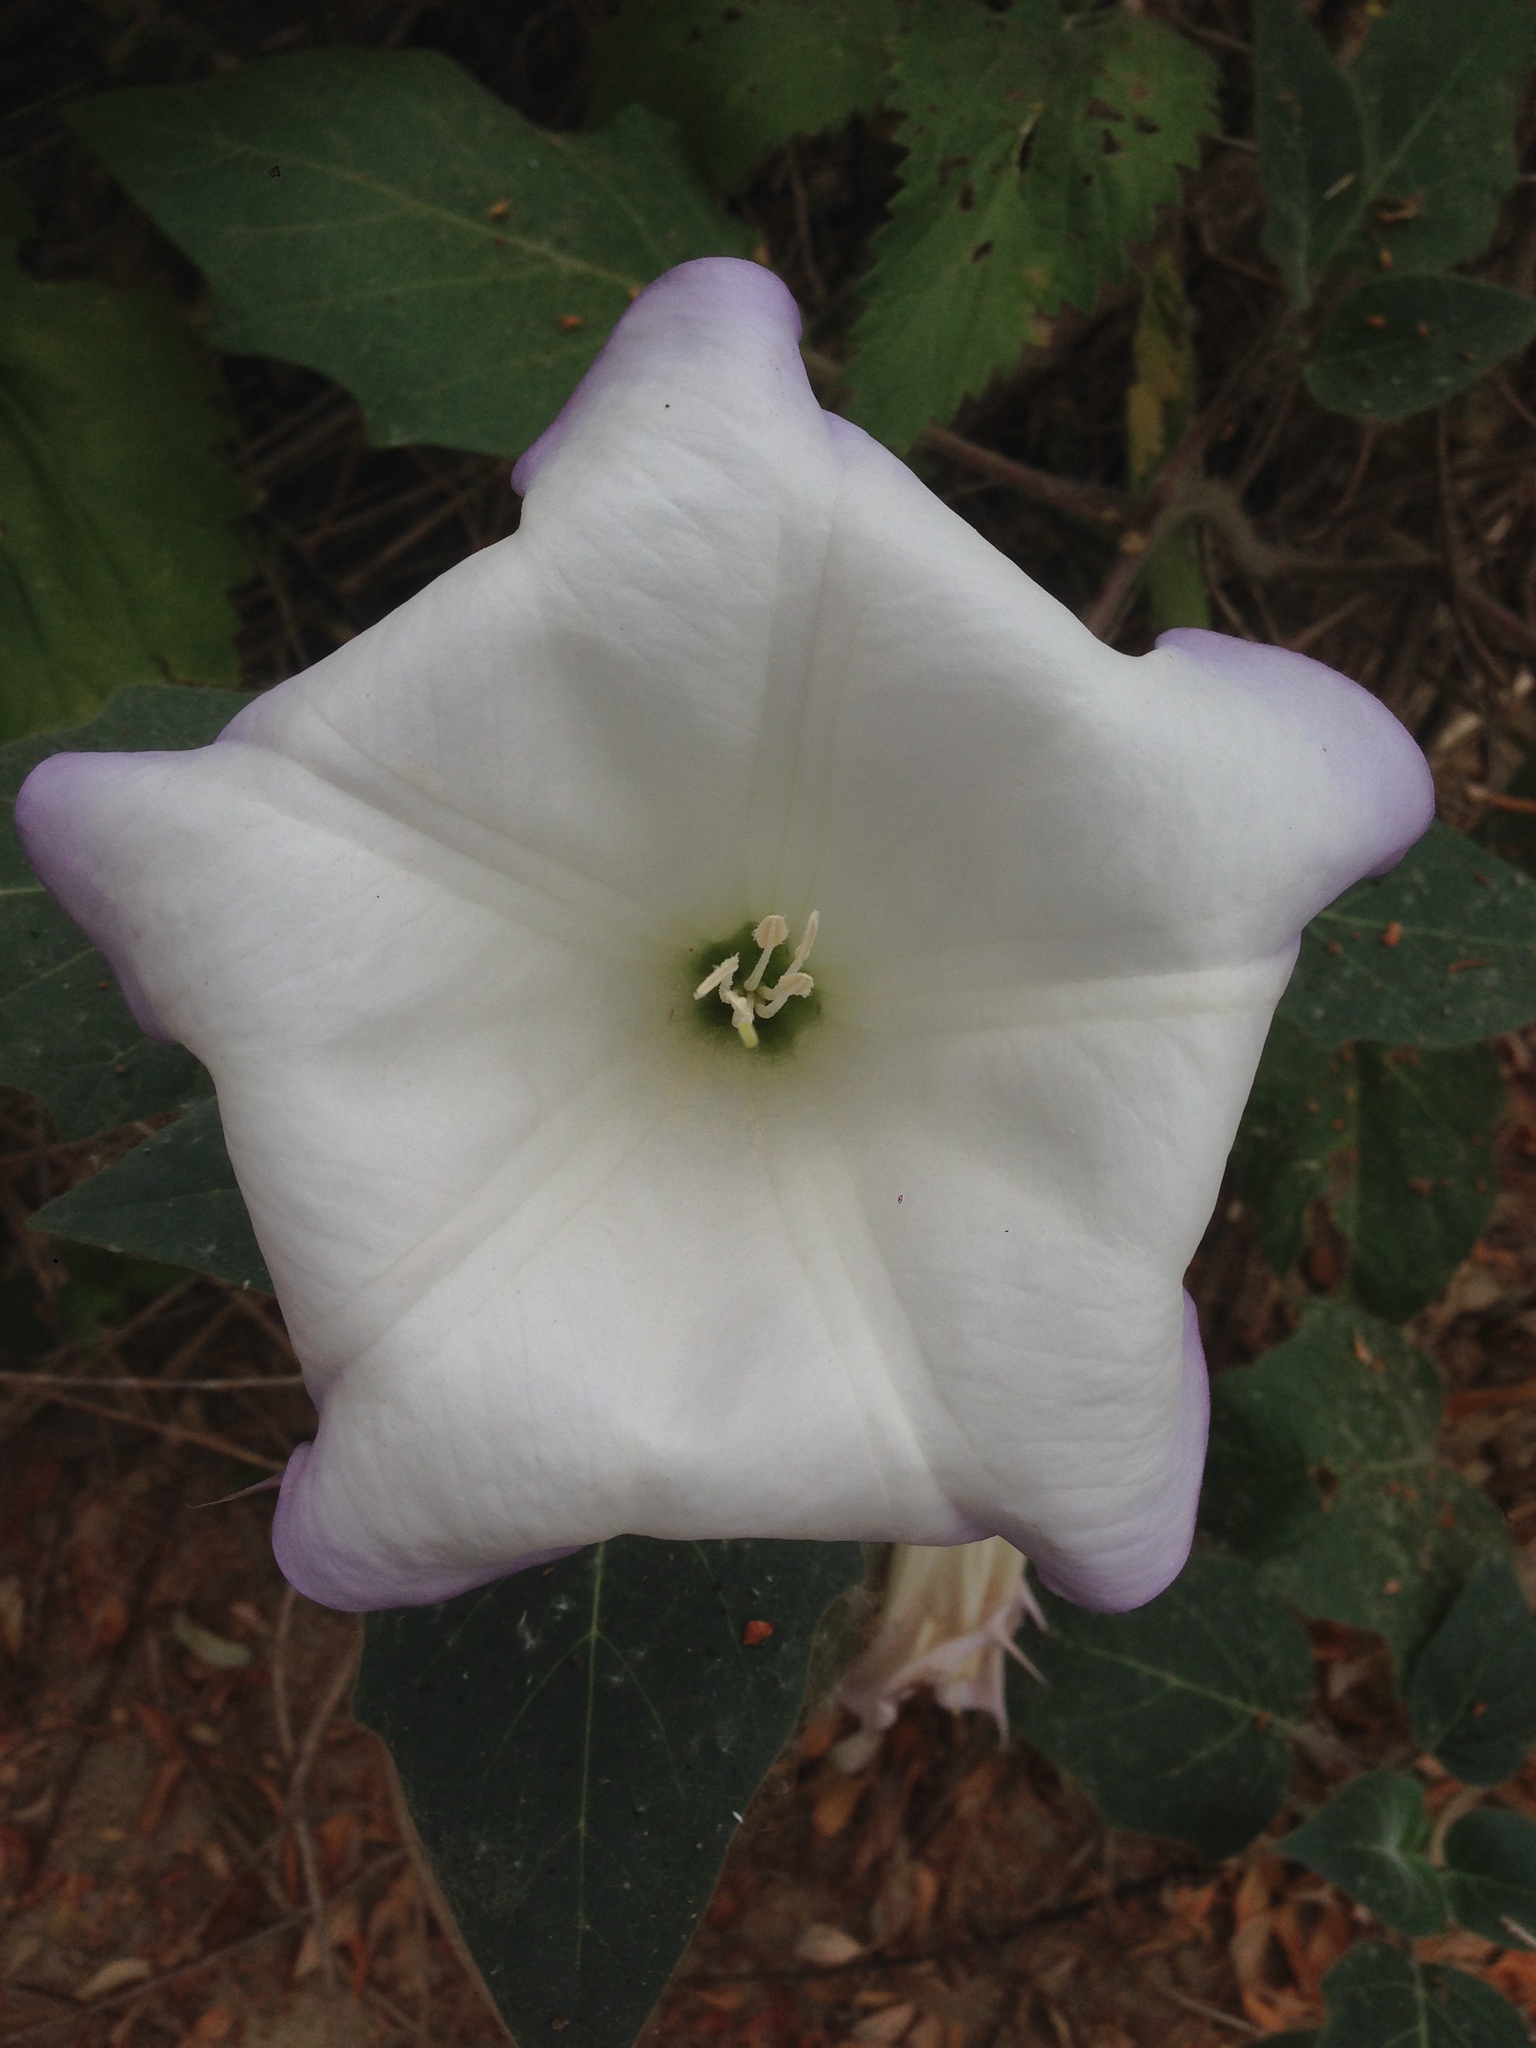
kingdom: Plantae
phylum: Tracheophyta
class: Magnoliopsida
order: Solanales
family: Solanaceae
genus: Datura
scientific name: Datura wrightii
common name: Sacred thorn-apple
